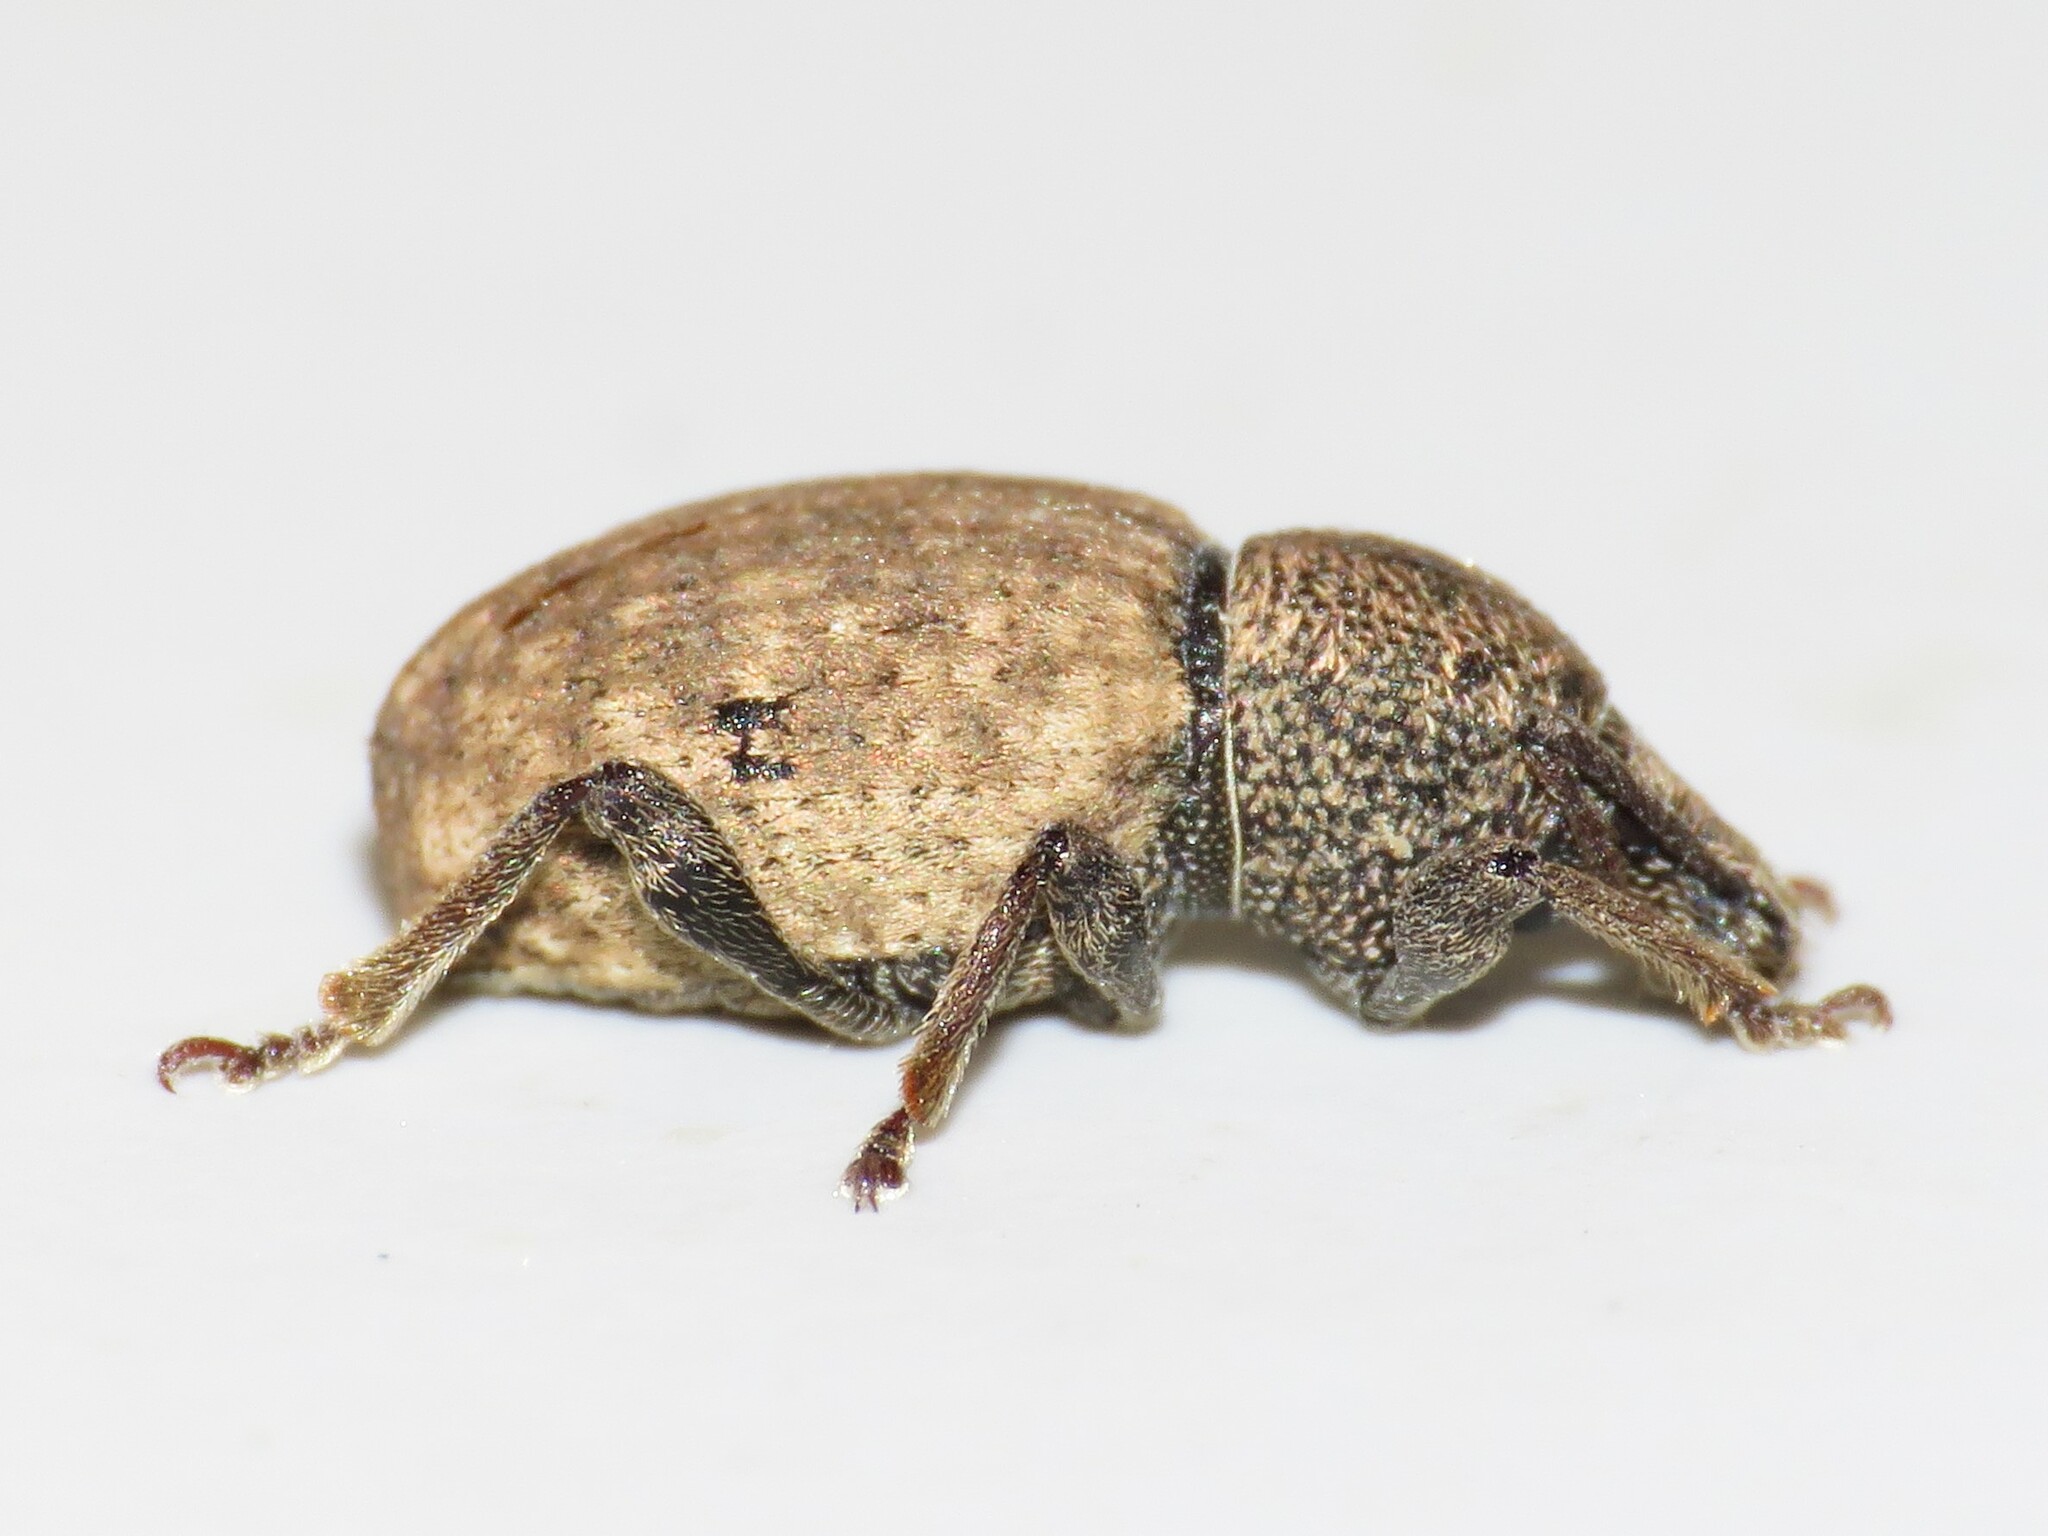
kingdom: Animalia
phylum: Arthropoda
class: Insecta
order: Coleoptera
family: Curculionidae
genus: Otiorhynchus
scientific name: Otiorhynchus raucus
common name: Weevil
